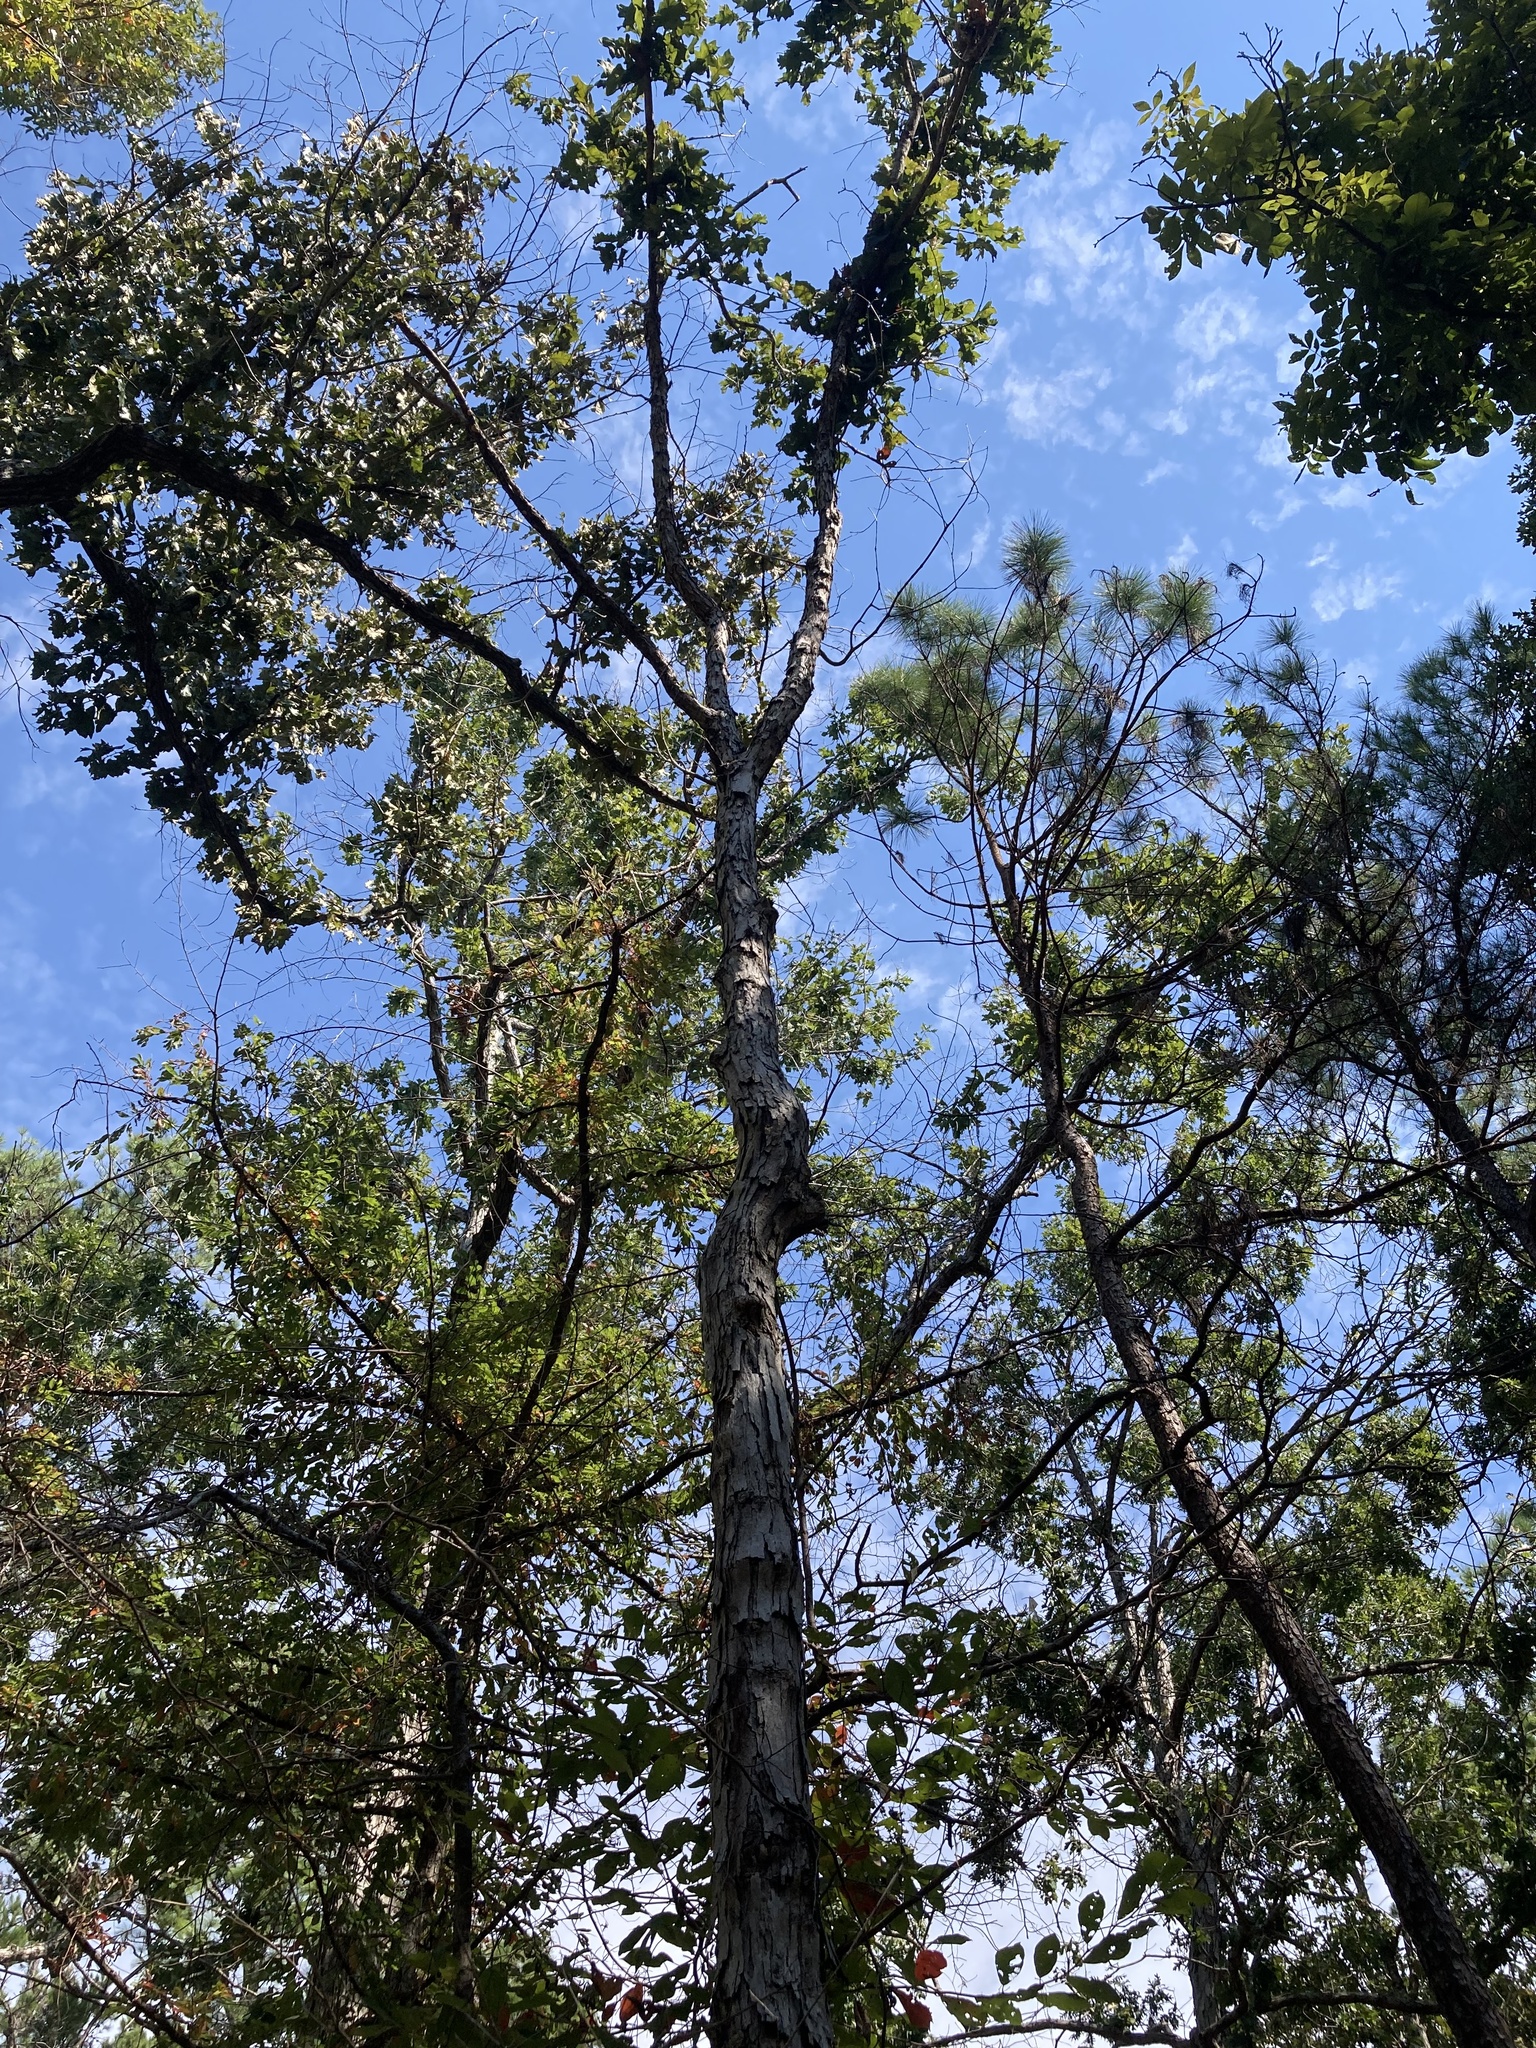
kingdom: Plantae
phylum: Tracheophyta
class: Magnoliopsida
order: Fagales
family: Fagaceae
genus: Quercus
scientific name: Quercus alba
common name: White oak
